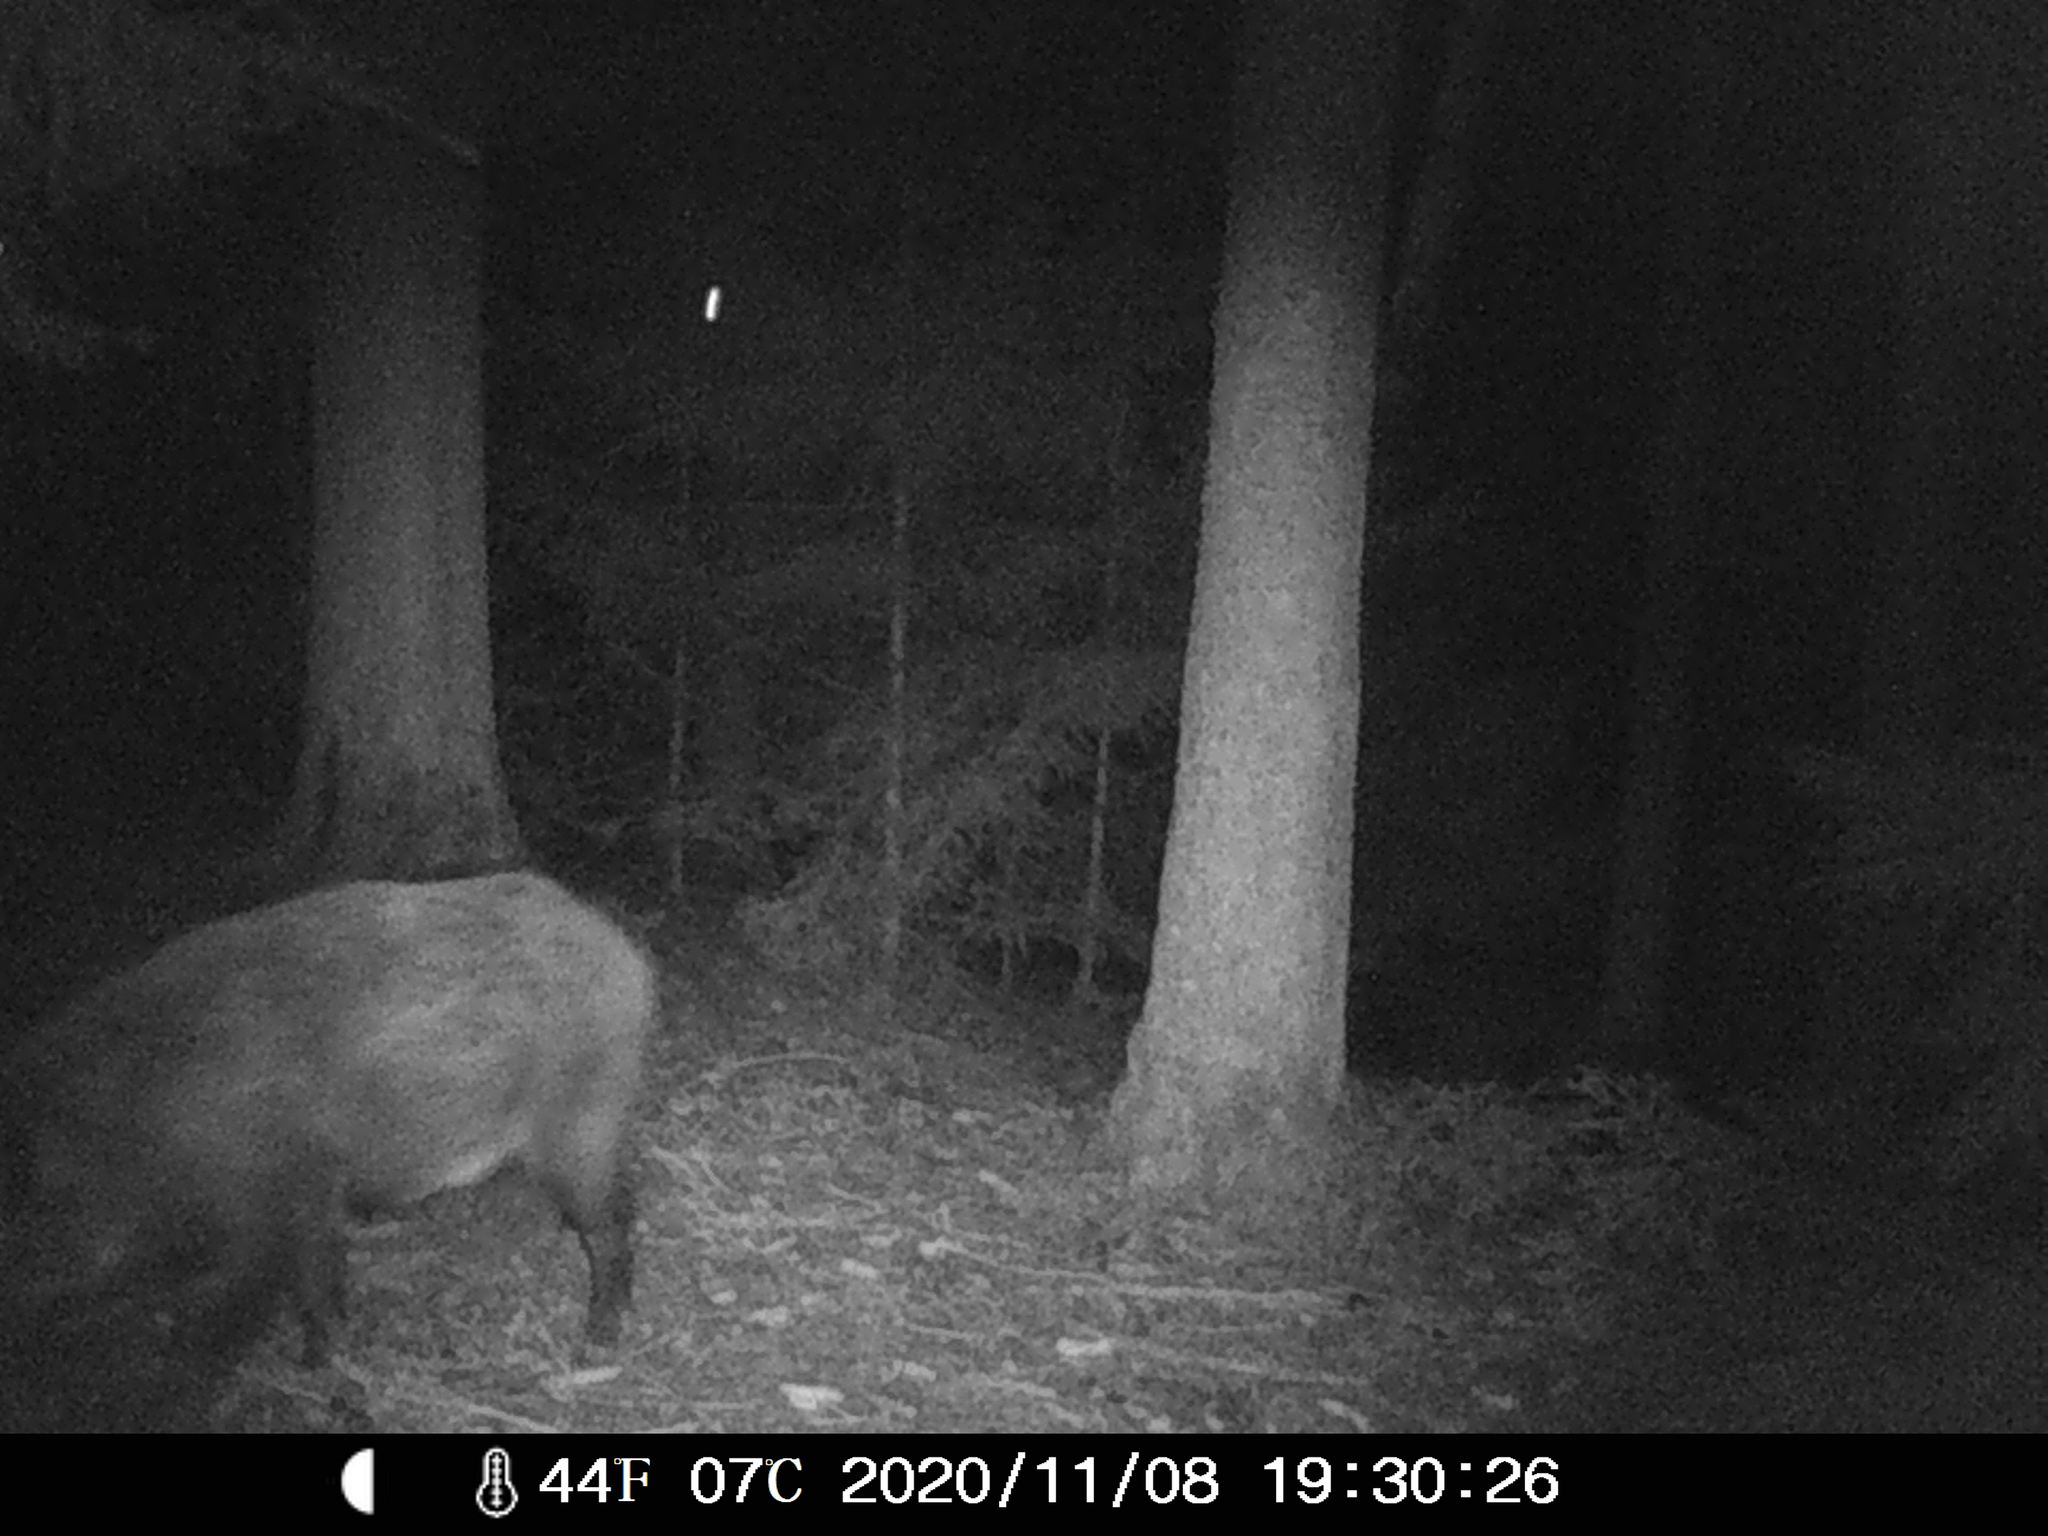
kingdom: Animalia
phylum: Chordata
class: Mammalia
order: Artiodactyla
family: Suidae
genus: Sus
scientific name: Sus scrofa
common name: Wild boar
